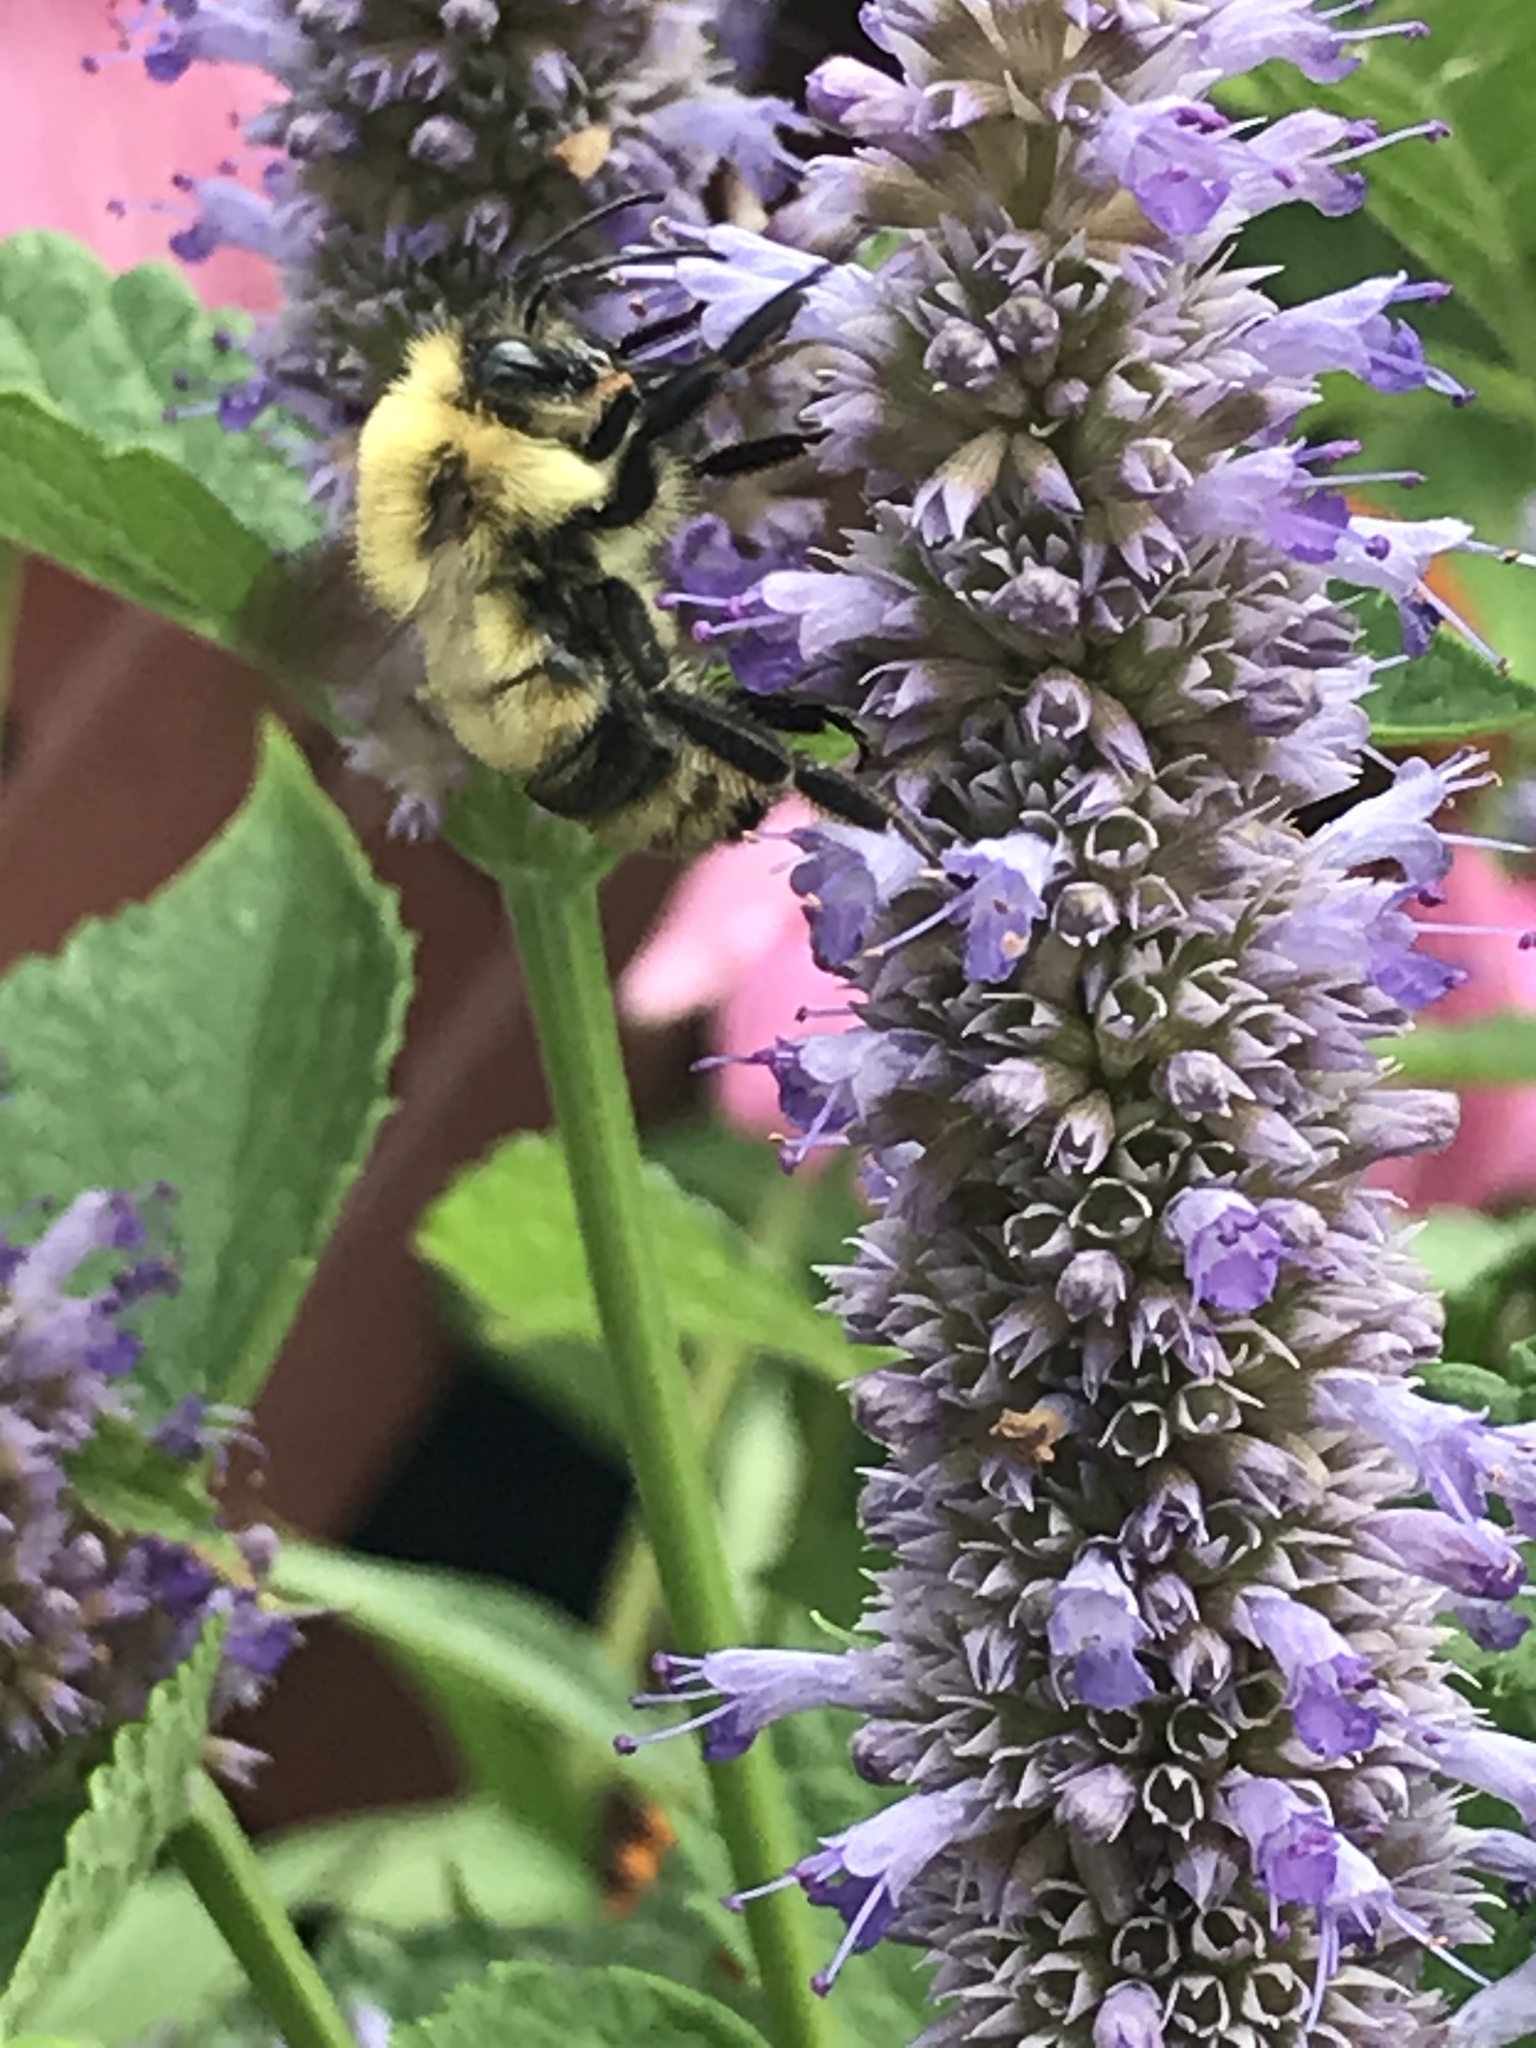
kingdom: Animalia
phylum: Arthropoda
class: Insecta
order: Hymenoptera
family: Apidae
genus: Bombus
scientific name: Bombus bimaculatus
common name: Two-spotted bumble bee
